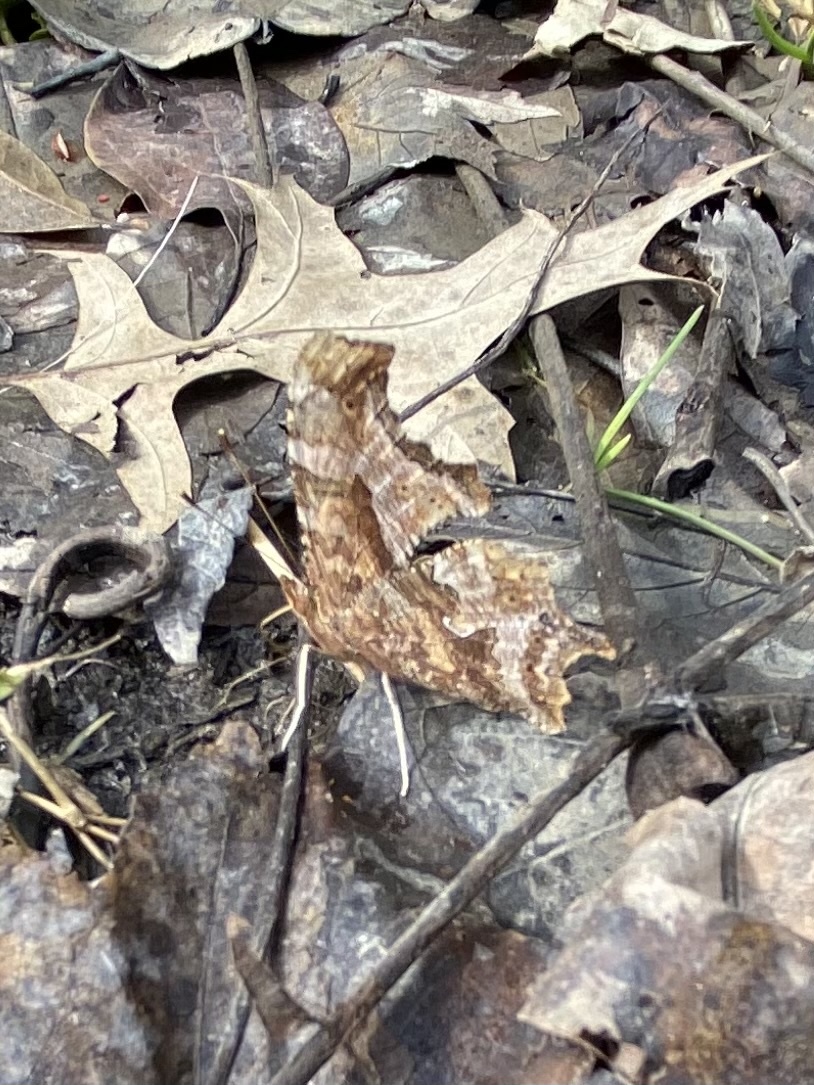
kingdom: Animalia
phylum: Arthropoda
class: Insecta
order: Lepidoptera
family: Nymphalidae
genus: Polygonia
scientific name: Polygonia comma
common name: Eastern comma
